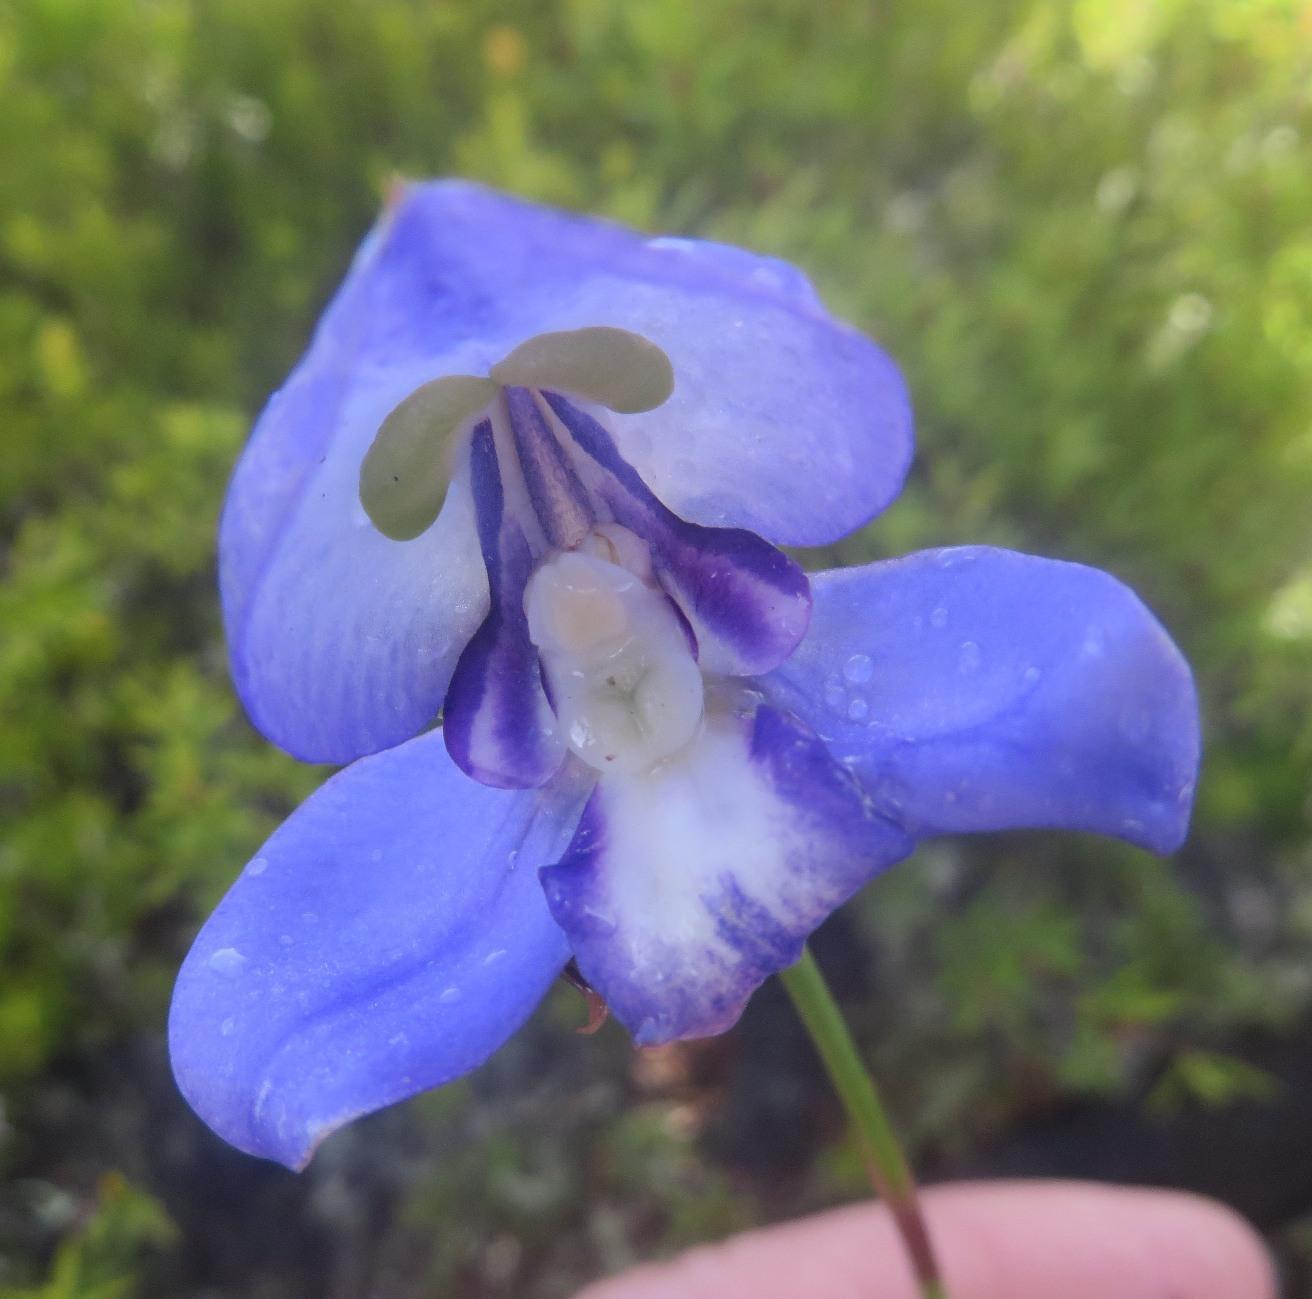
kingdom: Plantae
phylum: Tracheophyta
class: Liliopsida
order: Asparagales
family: Orchidaceae
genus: Disa
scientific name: Disa graminifolia
